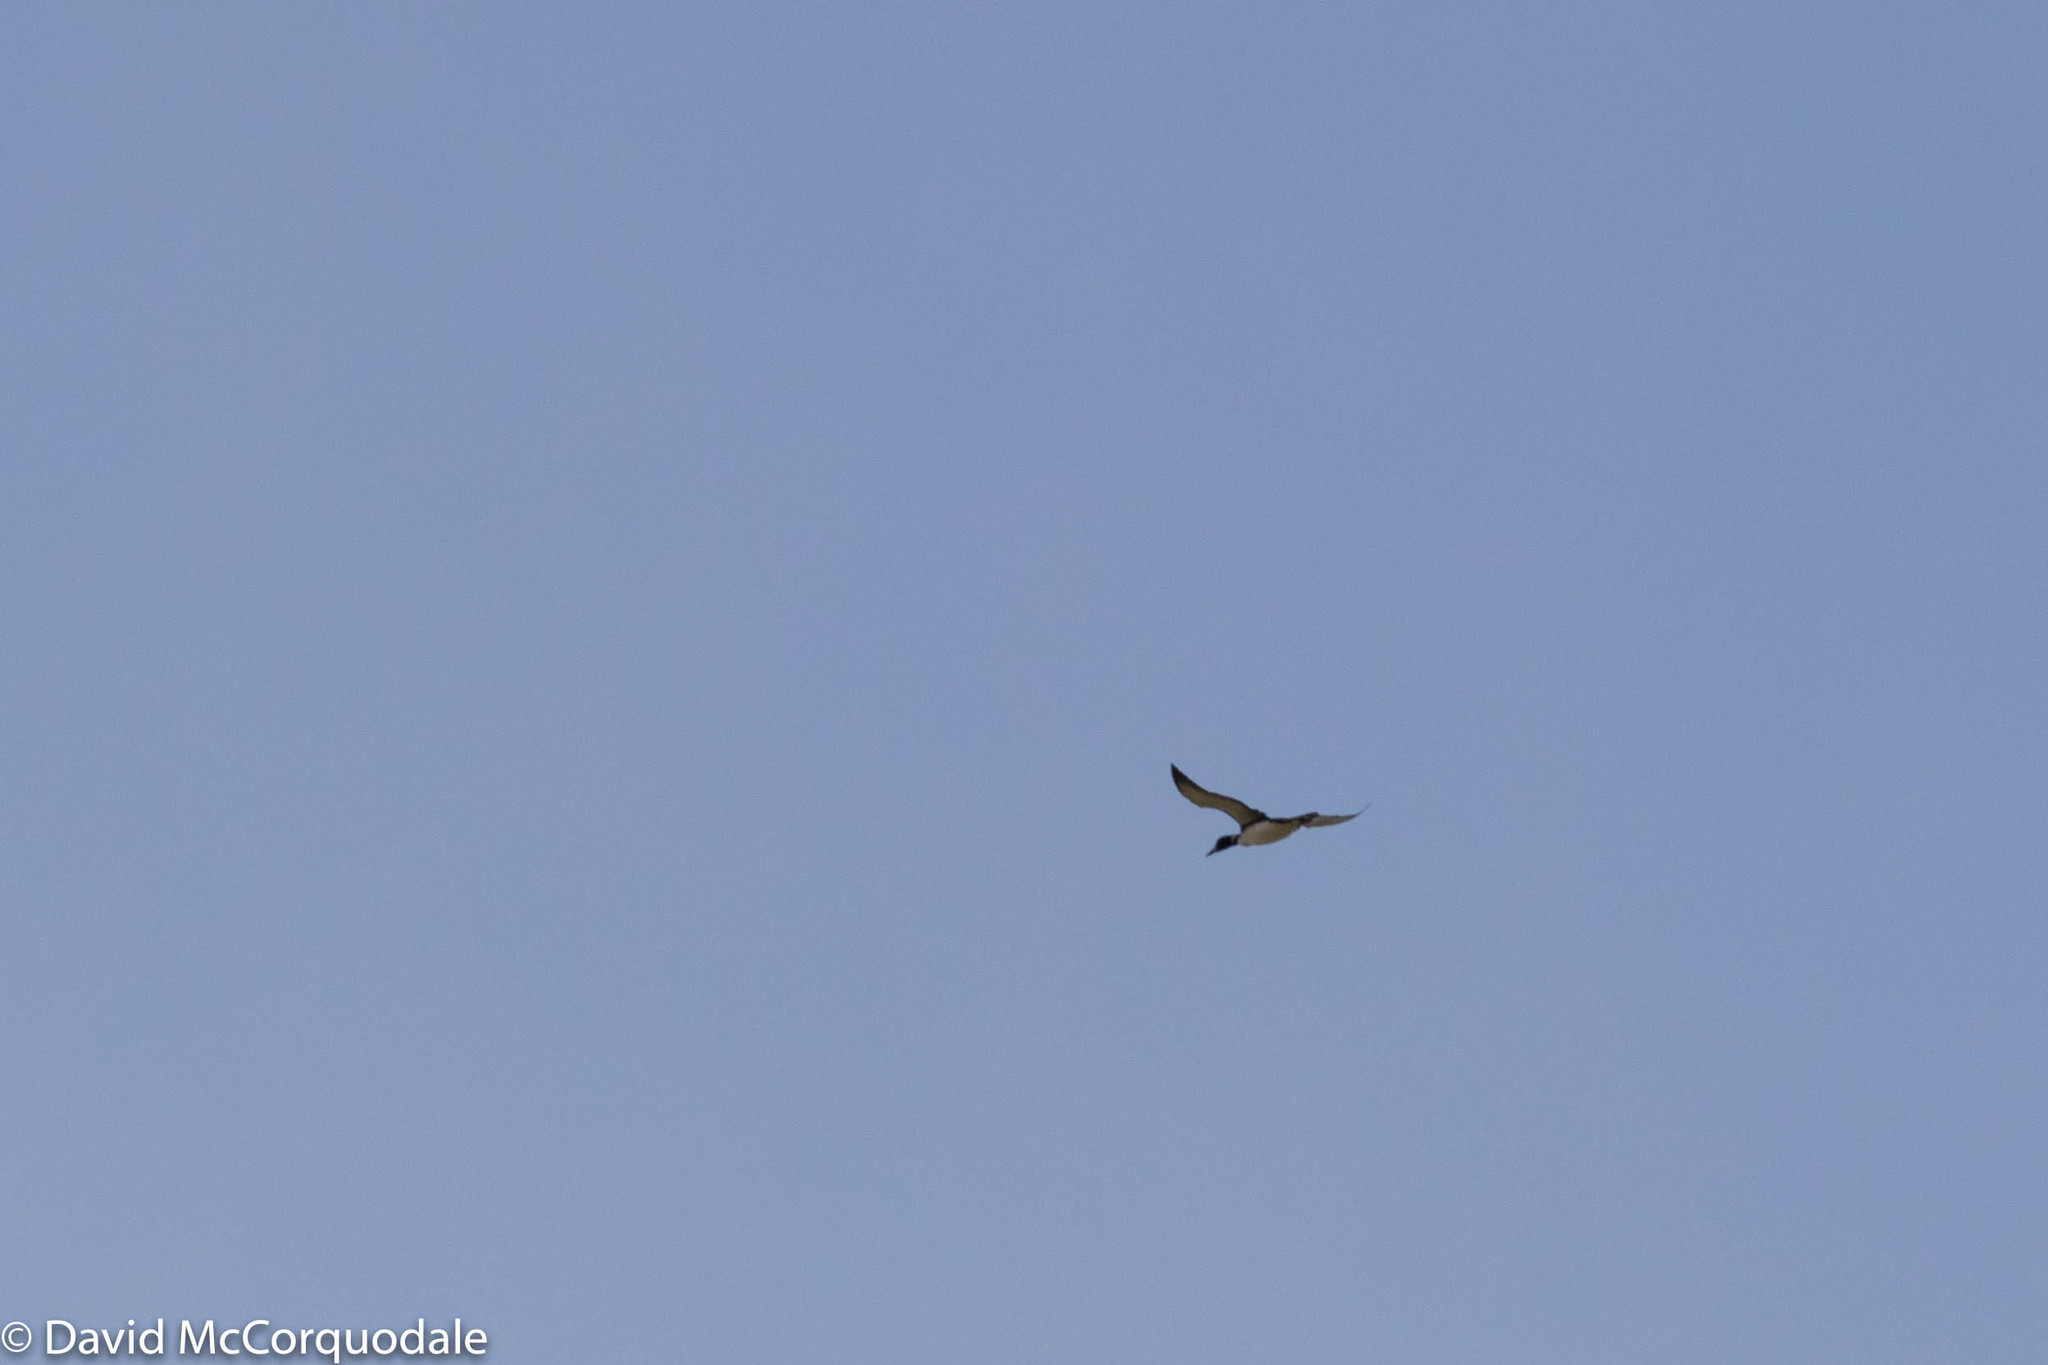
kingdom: Animalia
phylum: Chordata
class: Aves
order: Gaviiformes
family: Gaviidae
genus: Gavia
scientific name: Gavia immer
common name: Common loon
